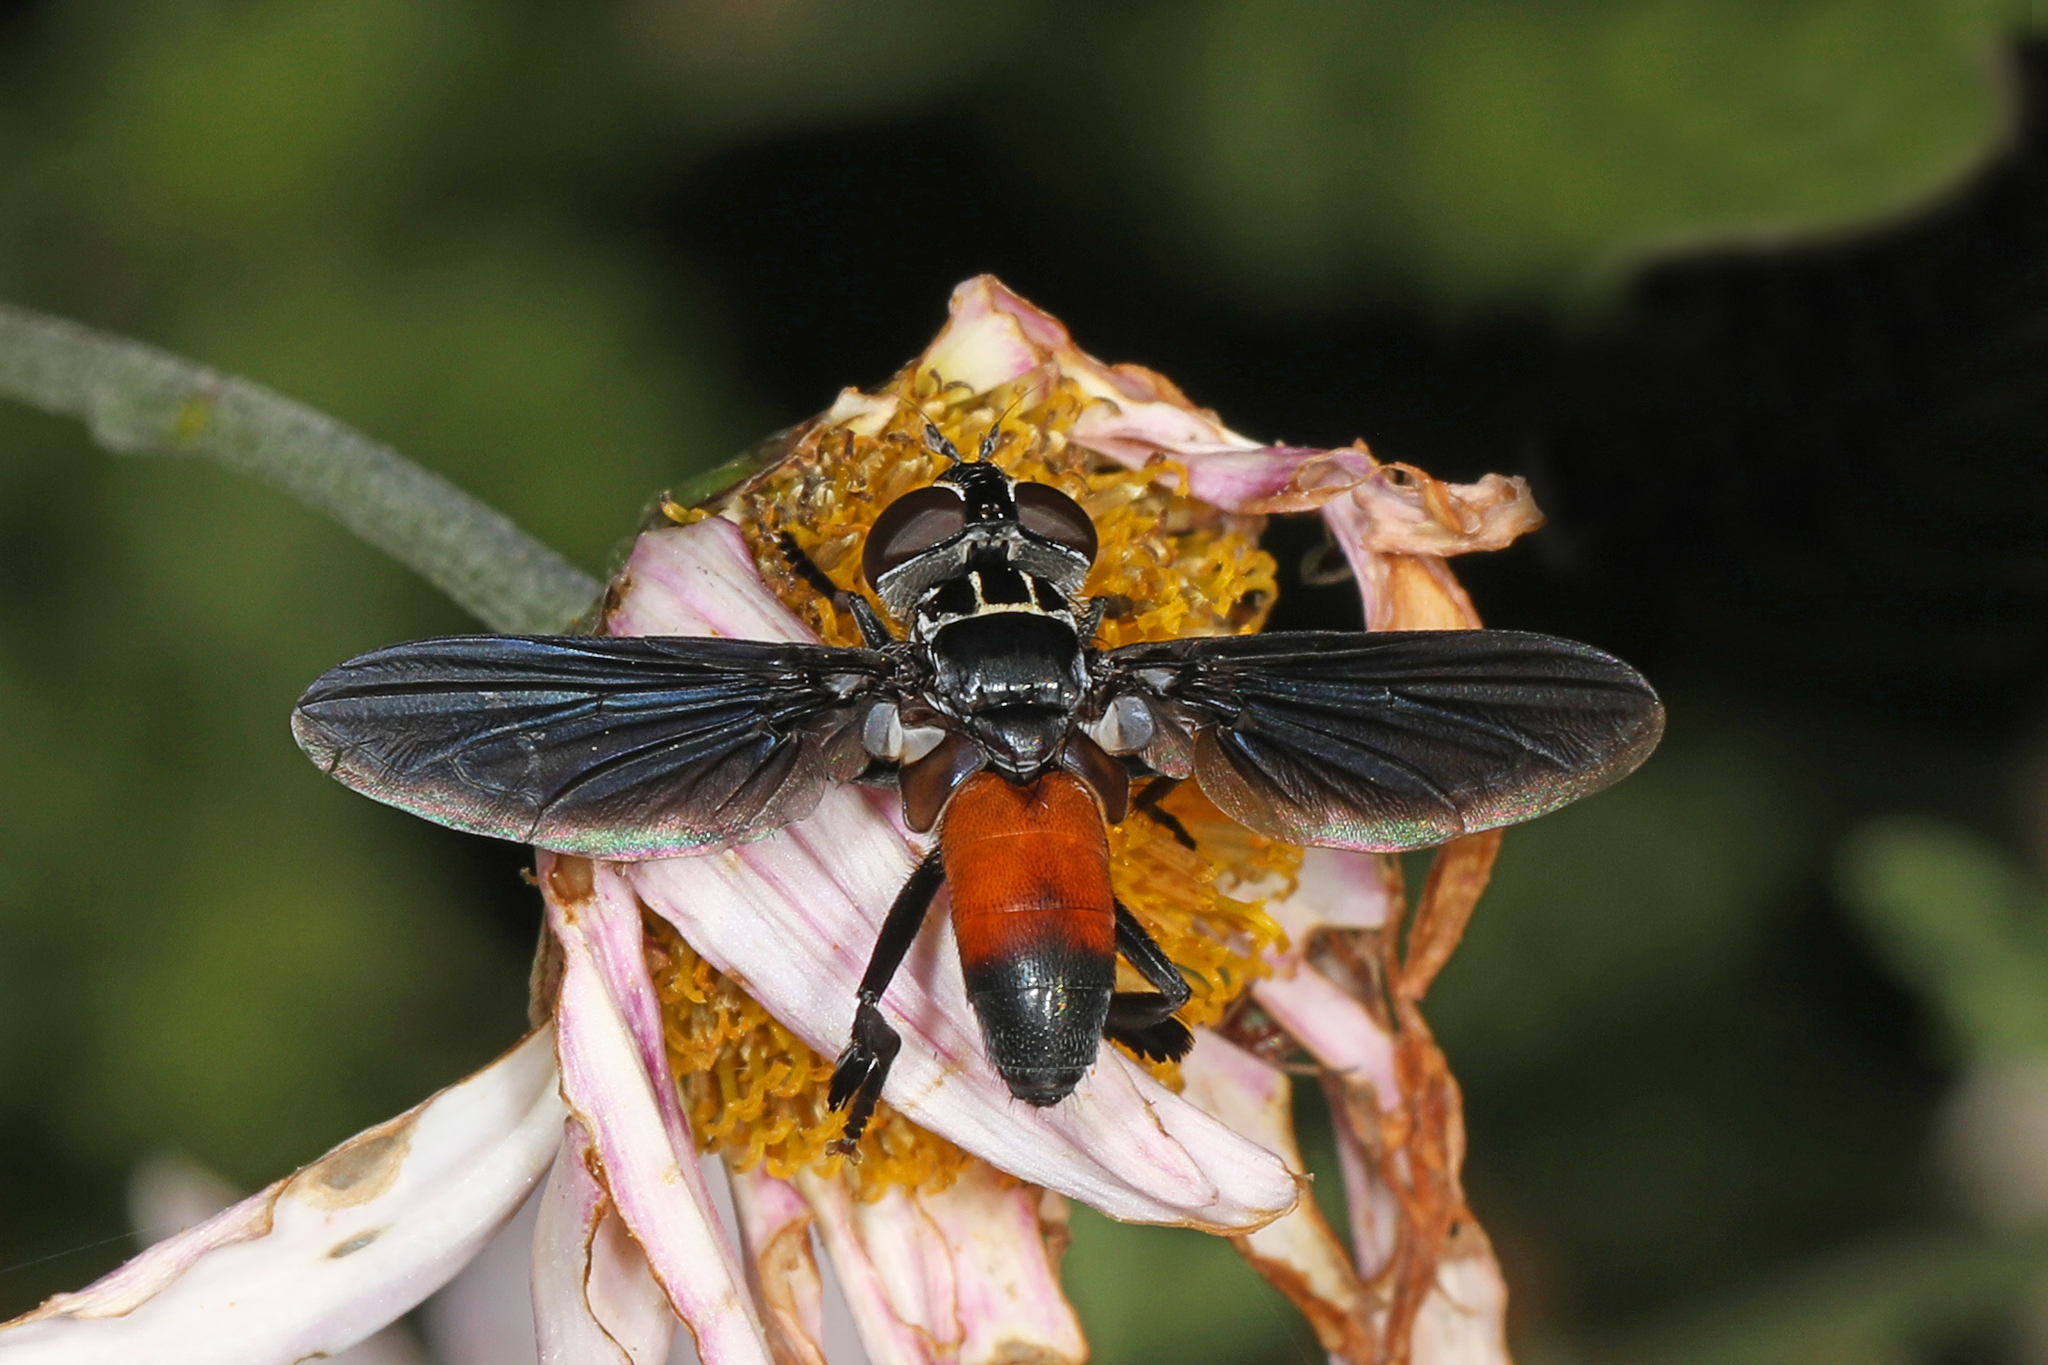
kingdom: Animalia
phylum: Arthropoda
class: Insecta
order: Diptera
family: Tachinidae
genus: Trichopoda
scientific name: Trichopoda pennipes
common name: Tachinid fly
